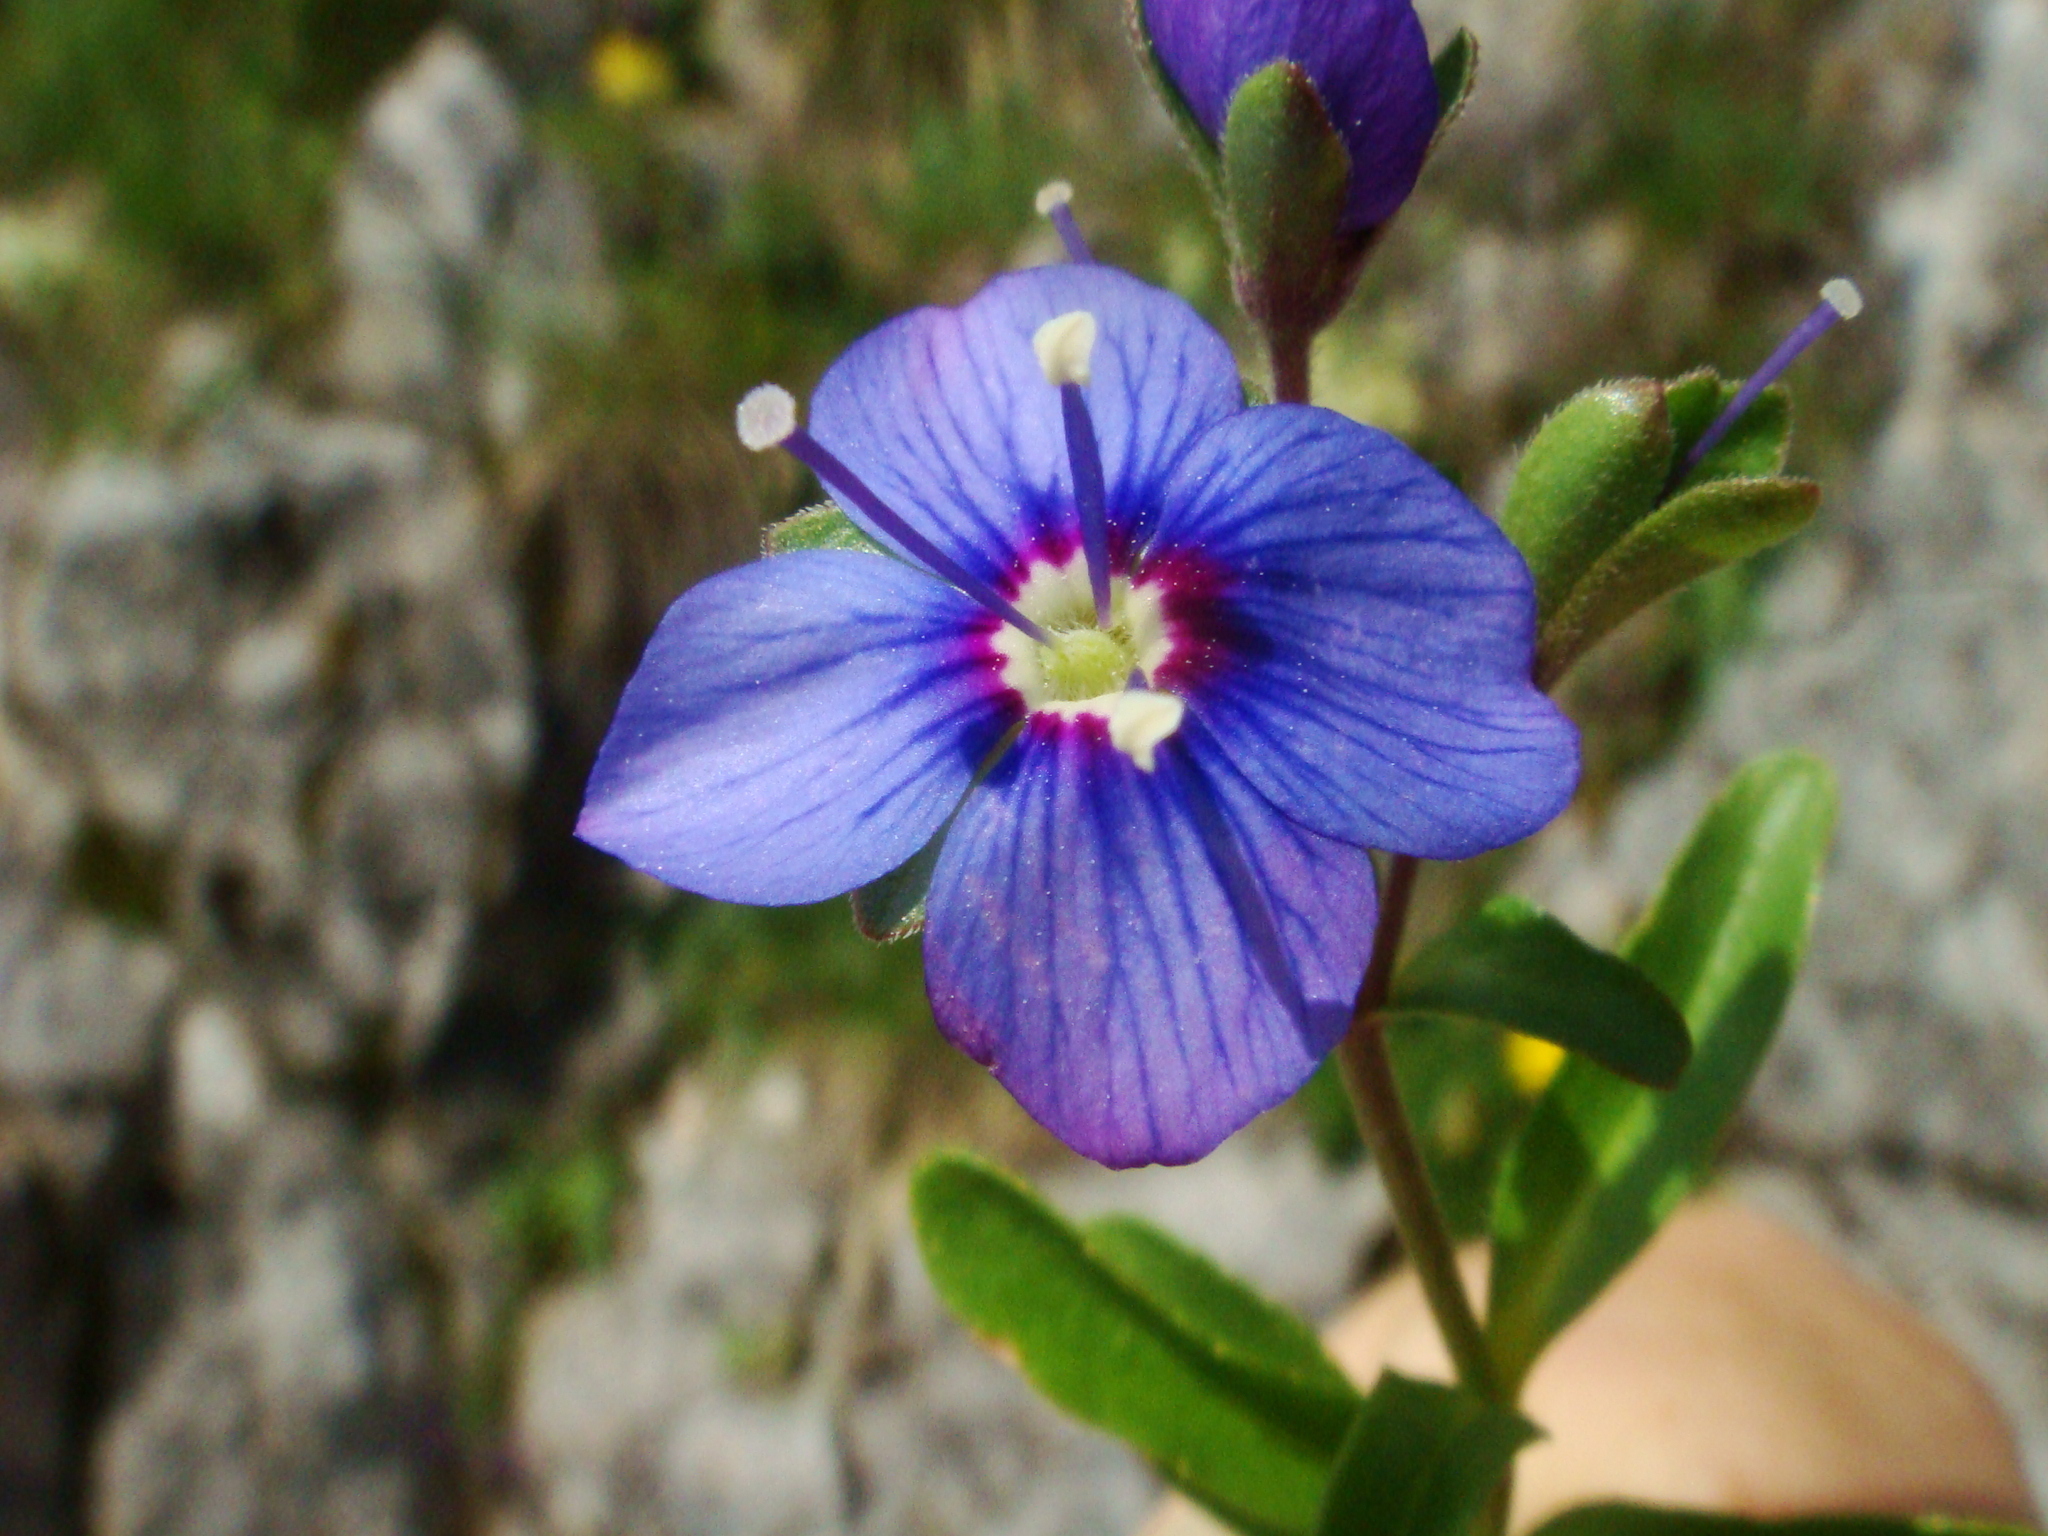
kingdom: Plantae
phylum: Tracheophyta
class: Magnoliopsida
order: Lamiales
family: Plantaginaceae
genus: Veronica
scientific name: Veronica fruticans
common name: Rock speedwell
